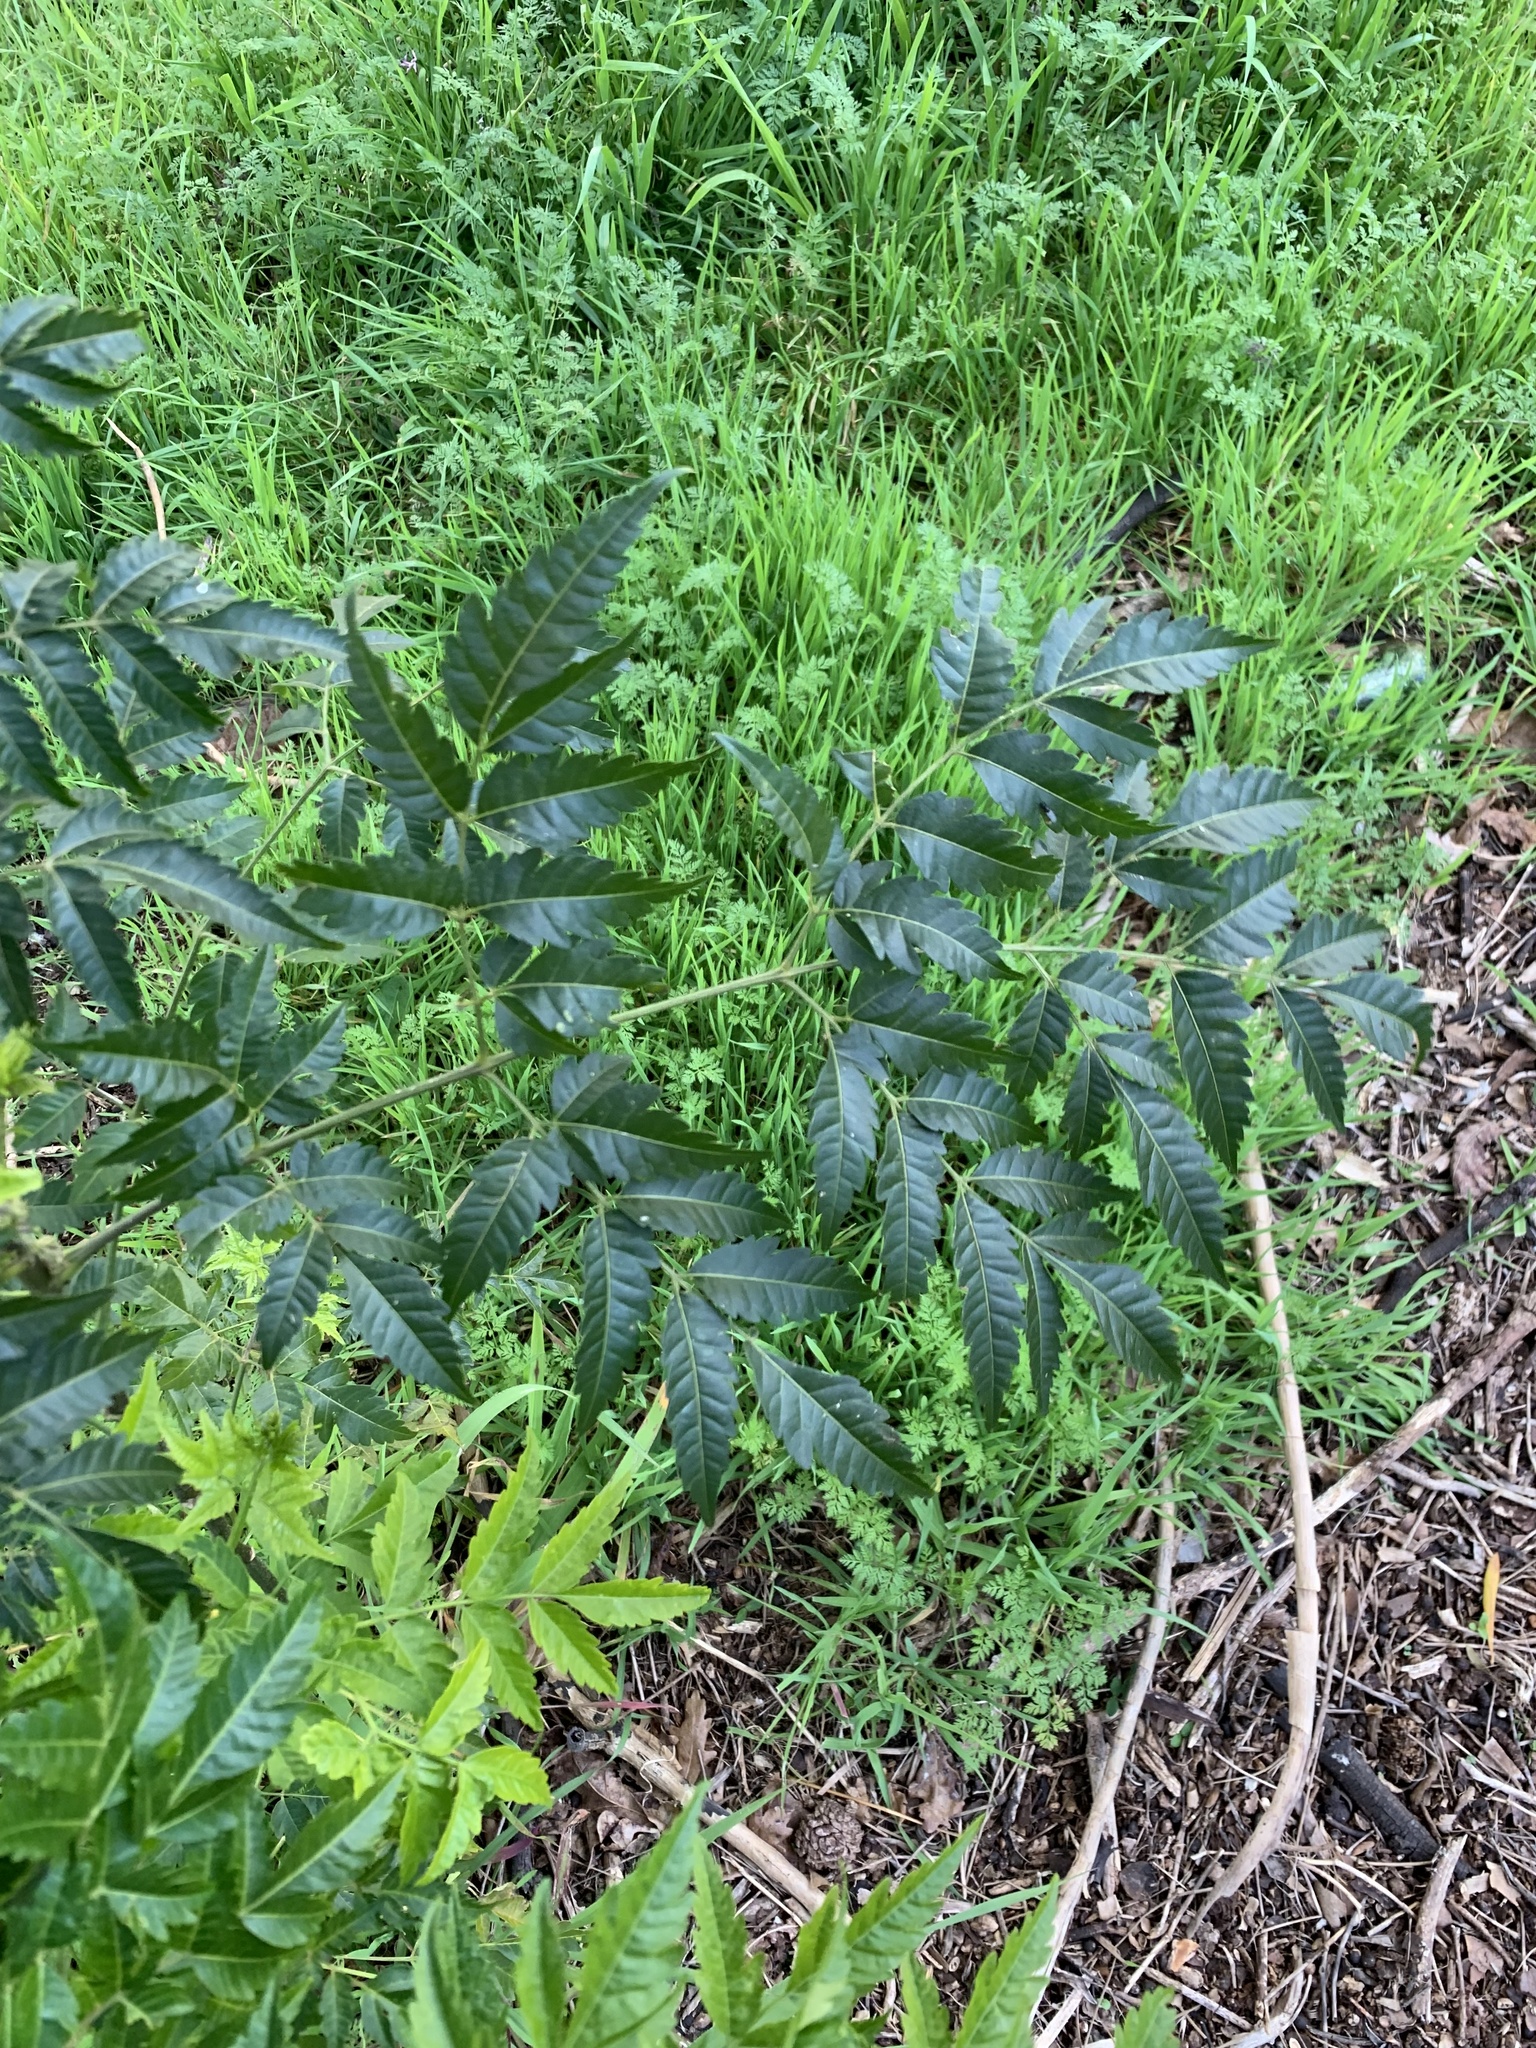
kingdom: Plantae
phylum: Tracheophyta
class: Magnoliopsida
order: Sapindales
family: Meliaceae
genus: Melia
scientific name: Melia azedarach
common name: Chinaberrytree
